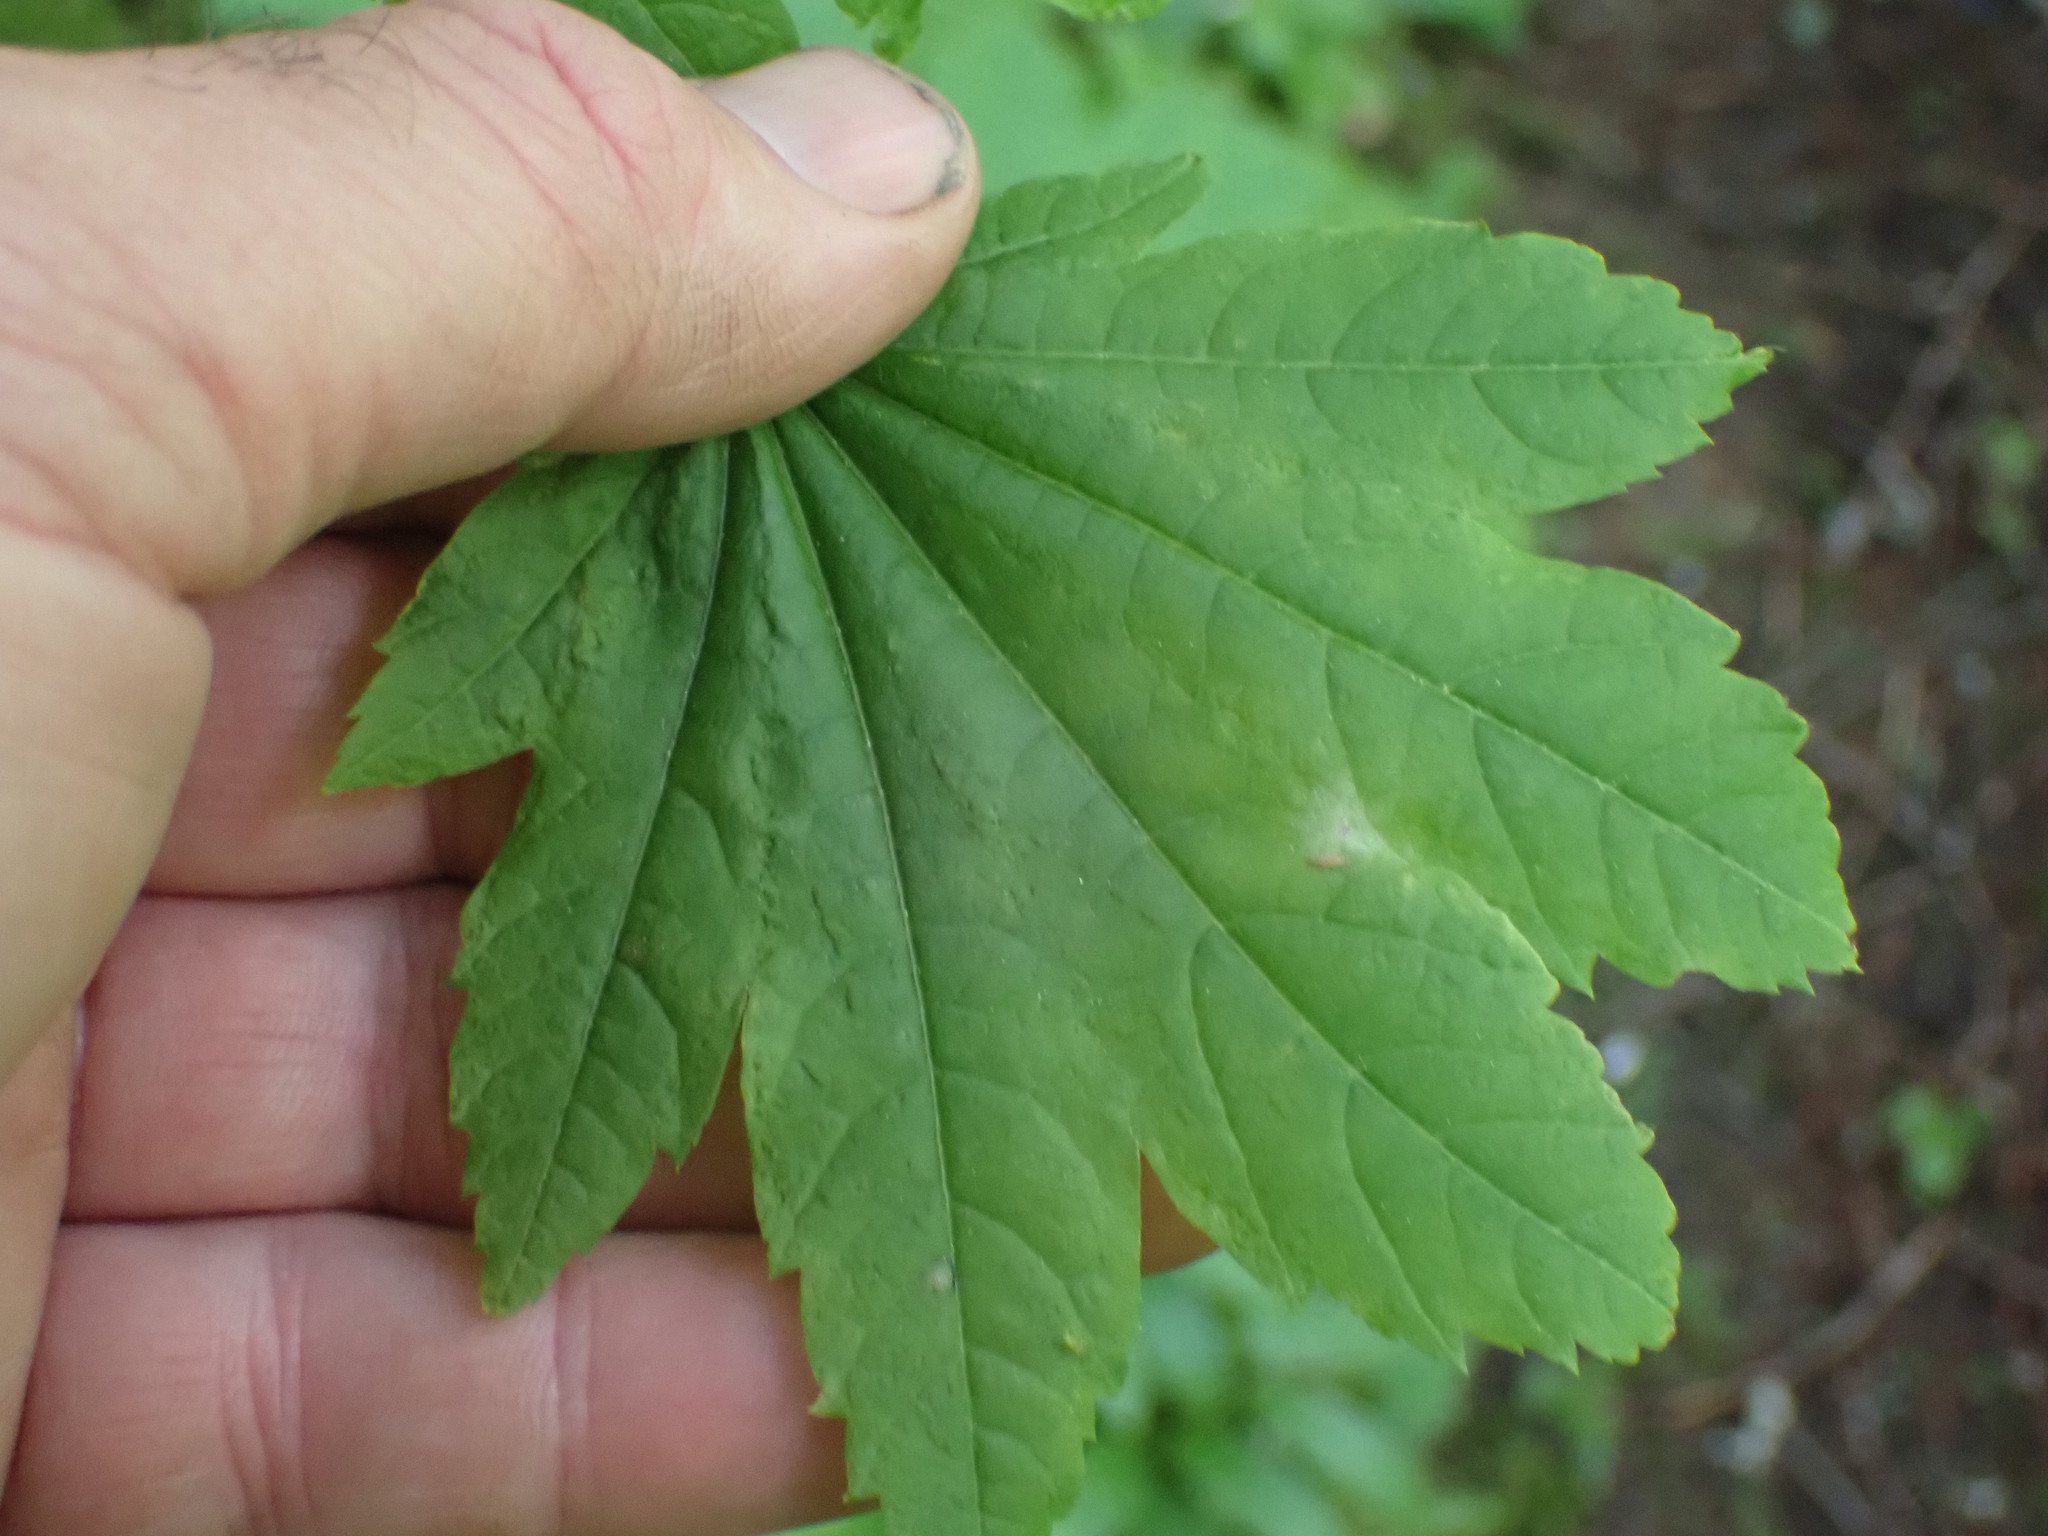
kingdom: Plantae
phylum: Tracheophyta
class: Magnoliopsida
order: Sapindales
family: Sapindaceae
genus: Acer
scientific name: Acer circinatum
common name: Vine maple
